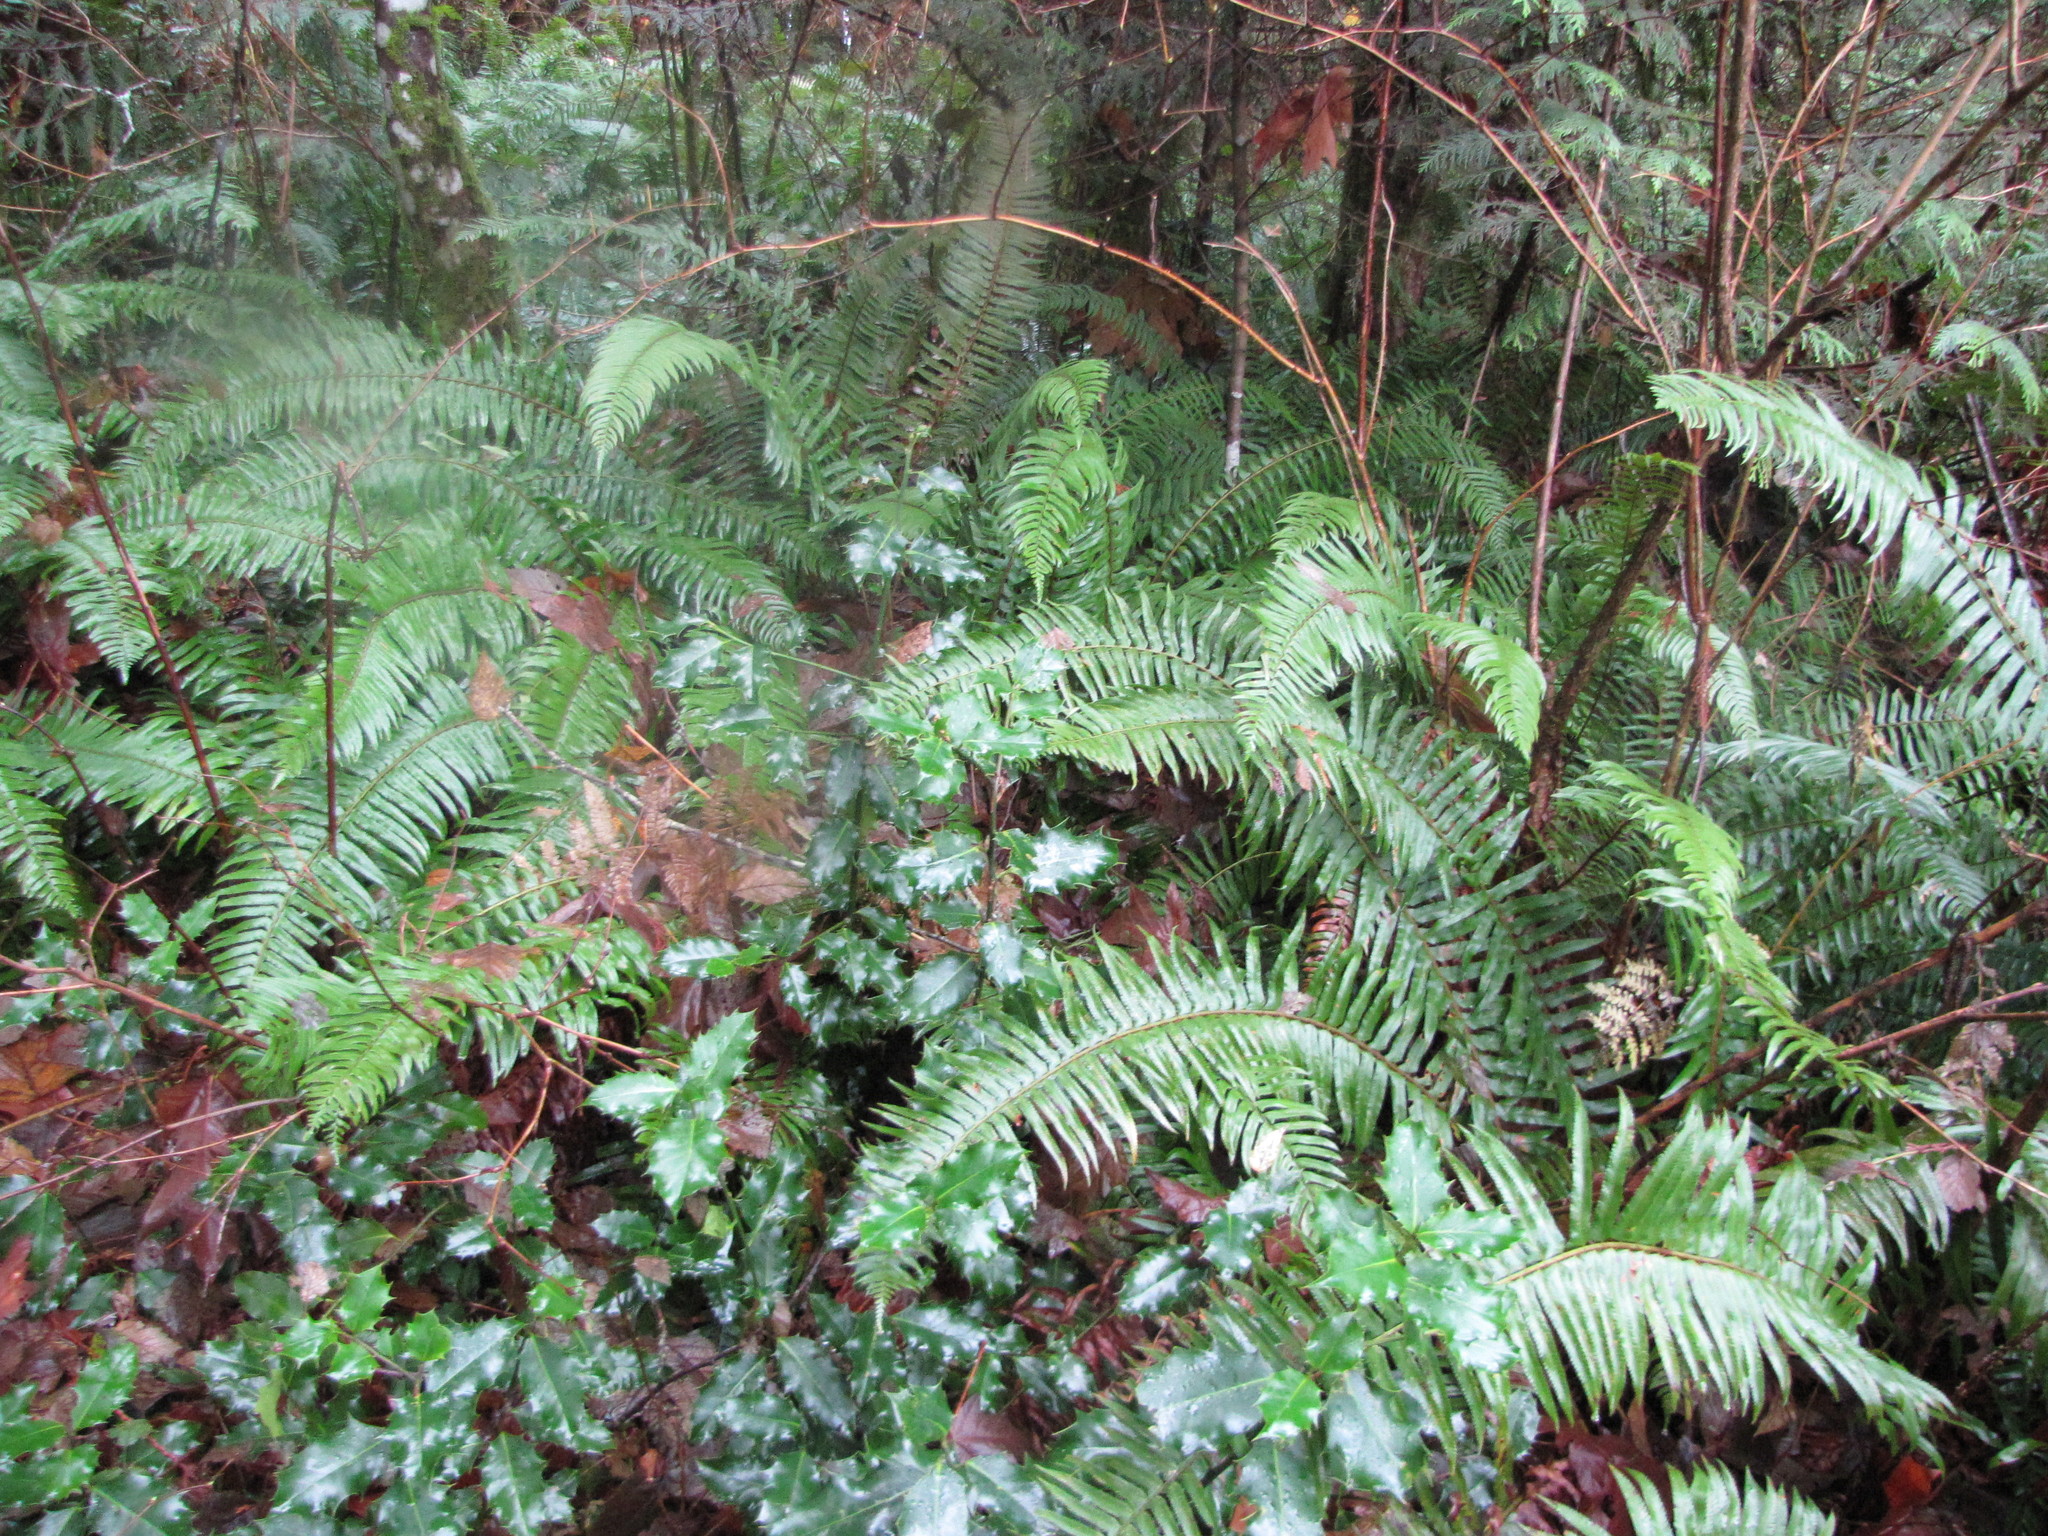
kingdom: Plantae
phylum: Tracheophyta
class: Polypodiopsida
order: Polypodiales
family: Dryopteridaceae
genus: Polystichum
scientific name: Polystichum munitum
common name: Western sword-fern
